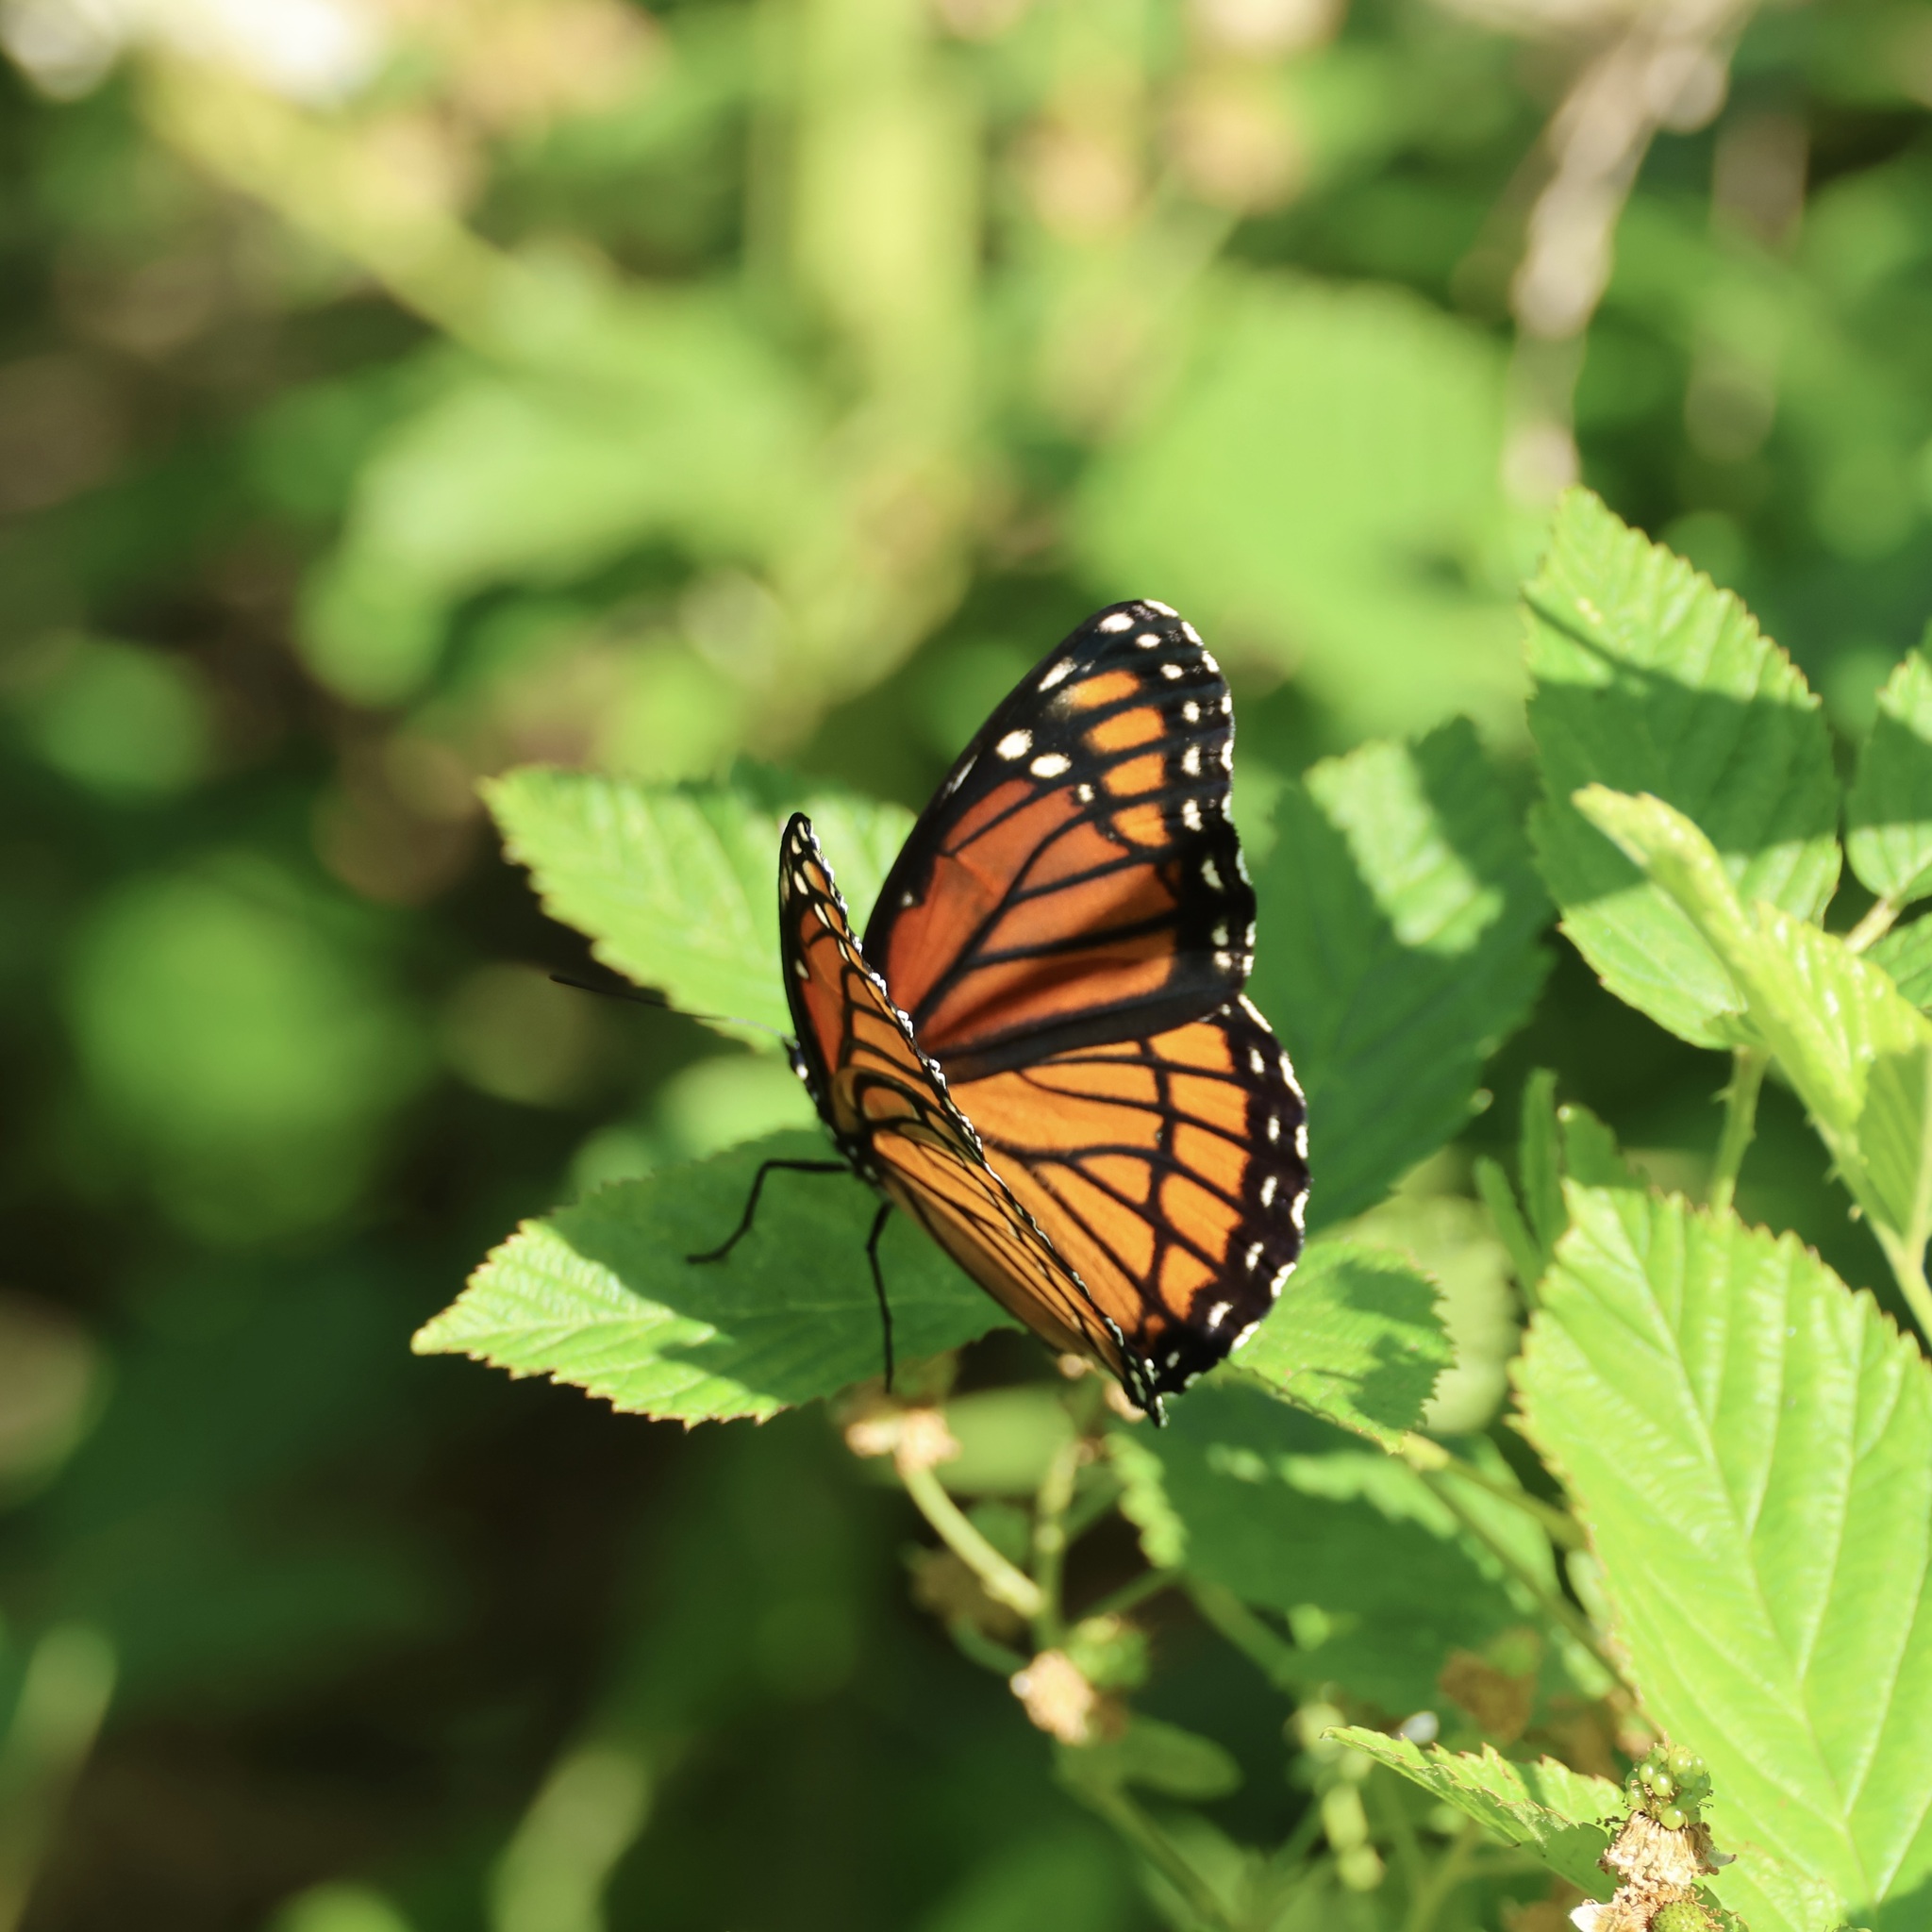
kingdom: Animalia
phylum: Arthropoda
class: Insecta
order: Lepidoptera
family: Nymphalidae
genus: Limenitis
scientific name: Limenitis archippus
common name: Viceroy
